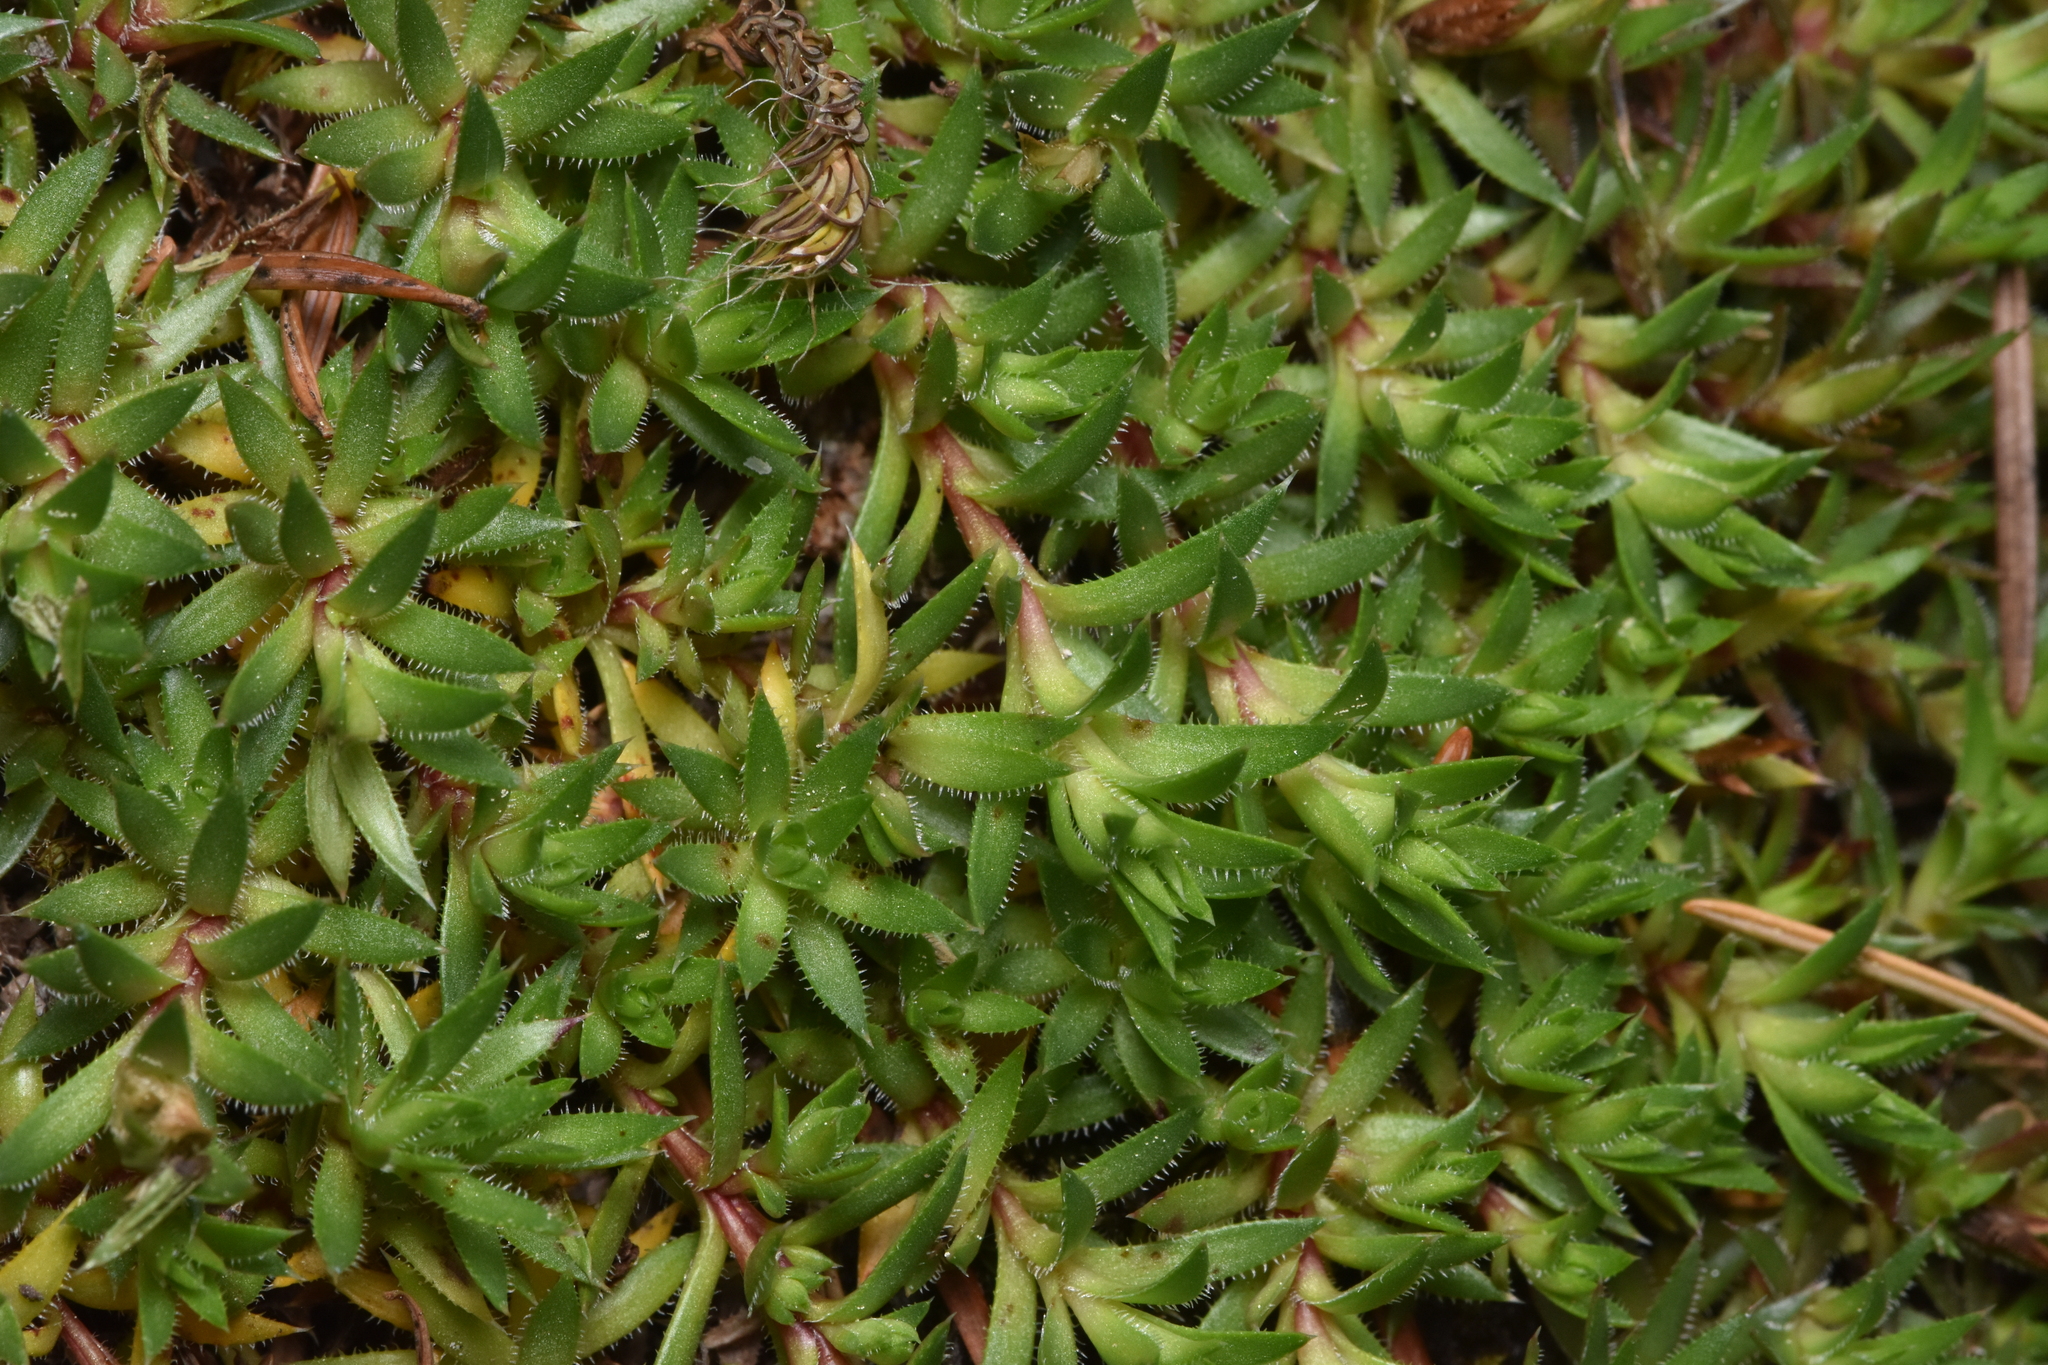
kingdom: Plantae
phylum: Tracheophyta
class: Magnoliopsida
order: Saxifragales
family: Saxifragaceae
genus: Saxifraga
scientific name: Saxifraga bronchialis
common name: Matted saxifrage
